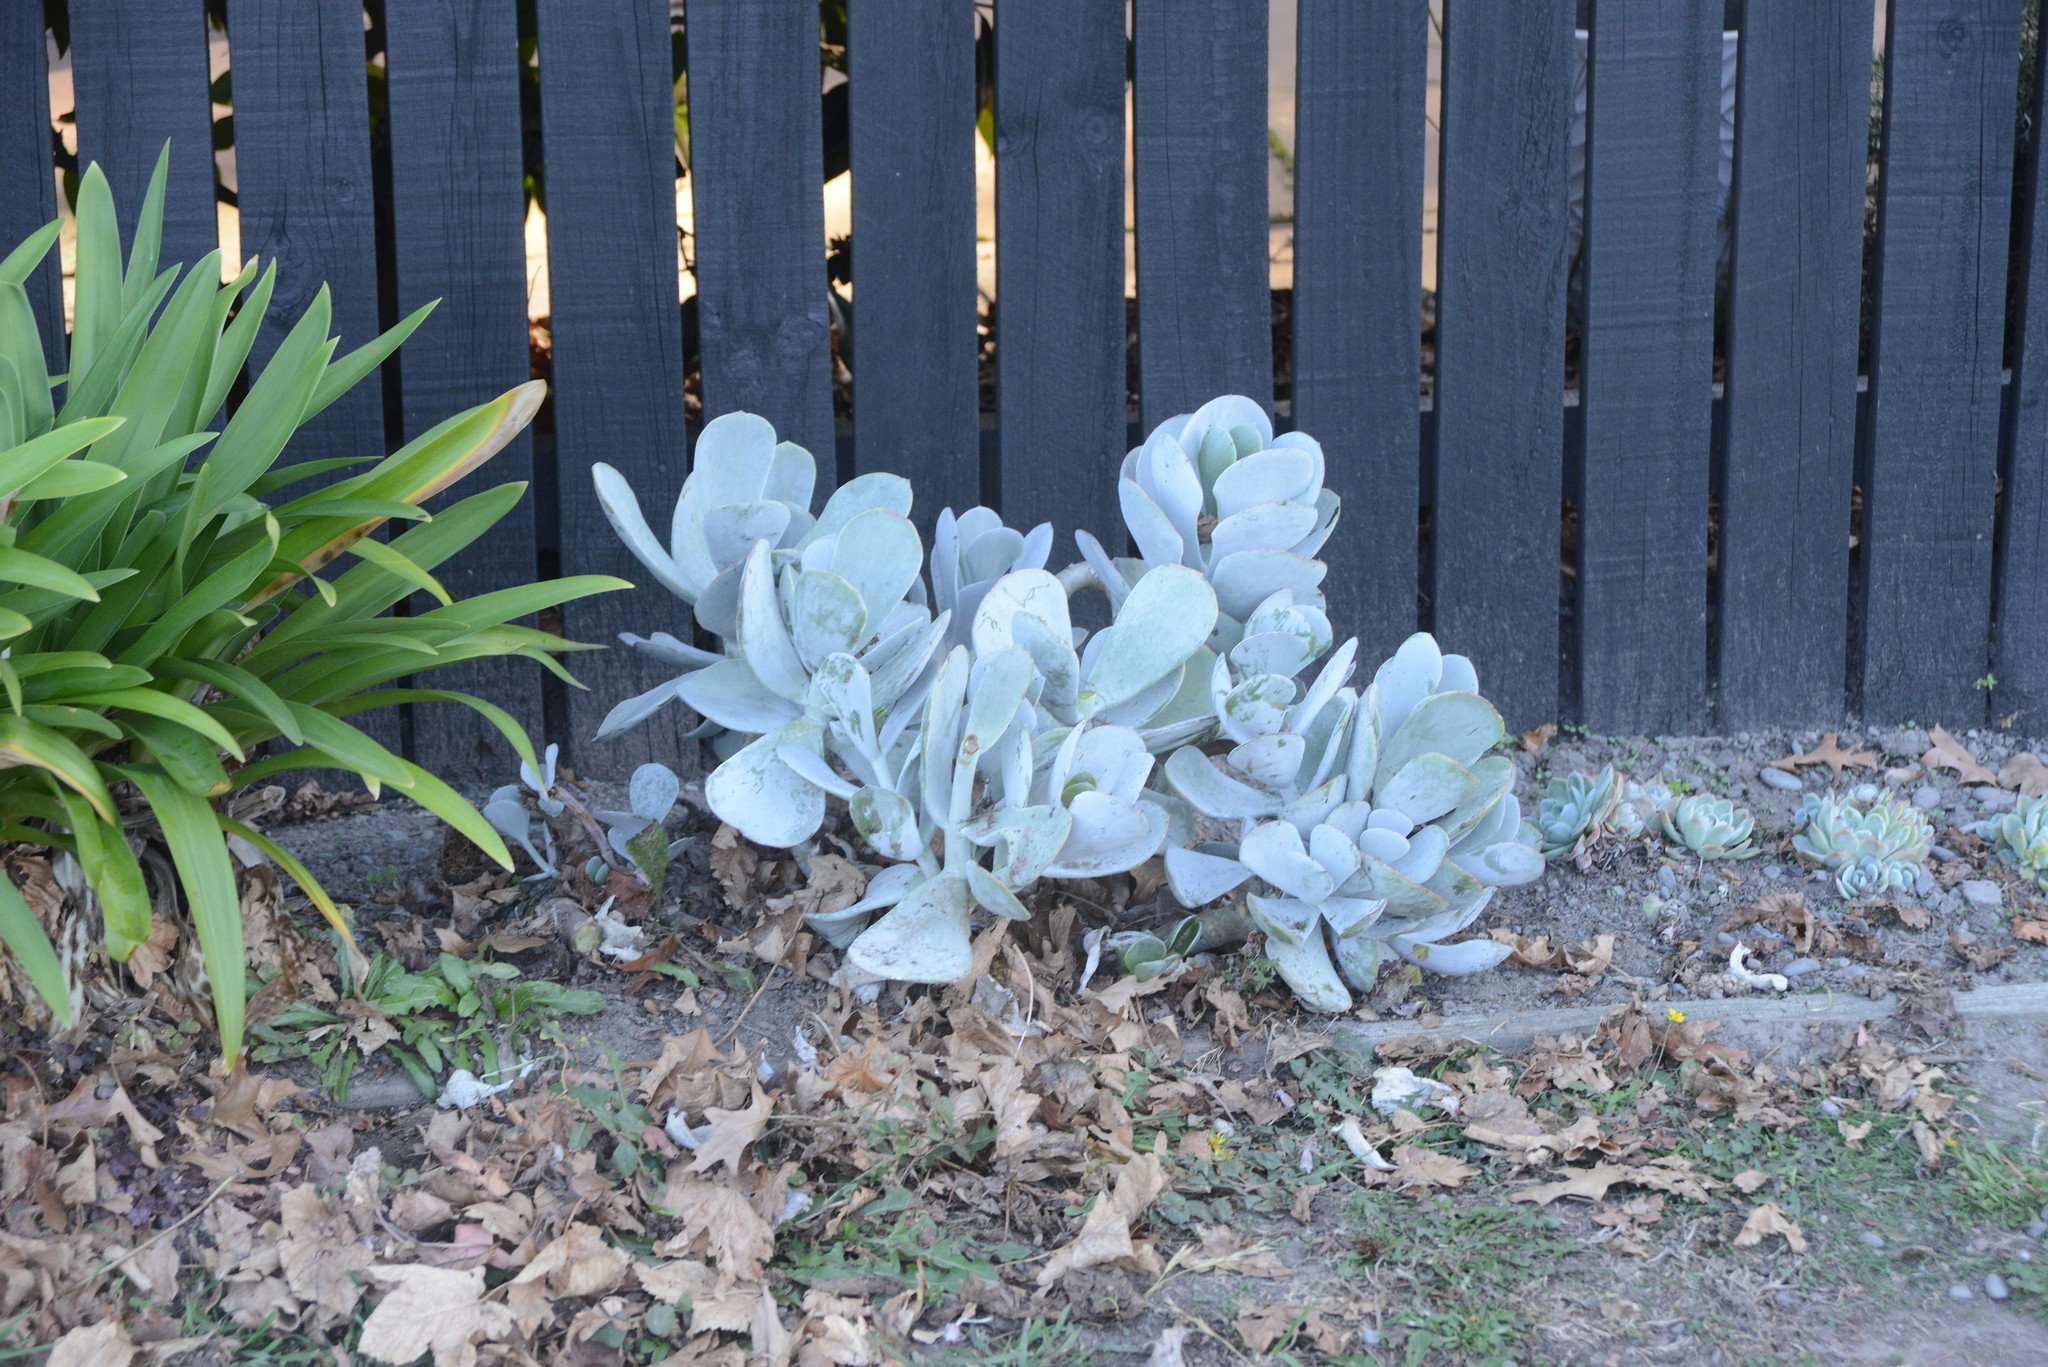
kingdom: Plantae
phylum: Tracheophyta
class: Magnoliopsida
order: Saxifragales
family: Crassulaceae
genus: Cotyledon
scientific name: Cotyledon orbiculata
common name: Pig's ear
